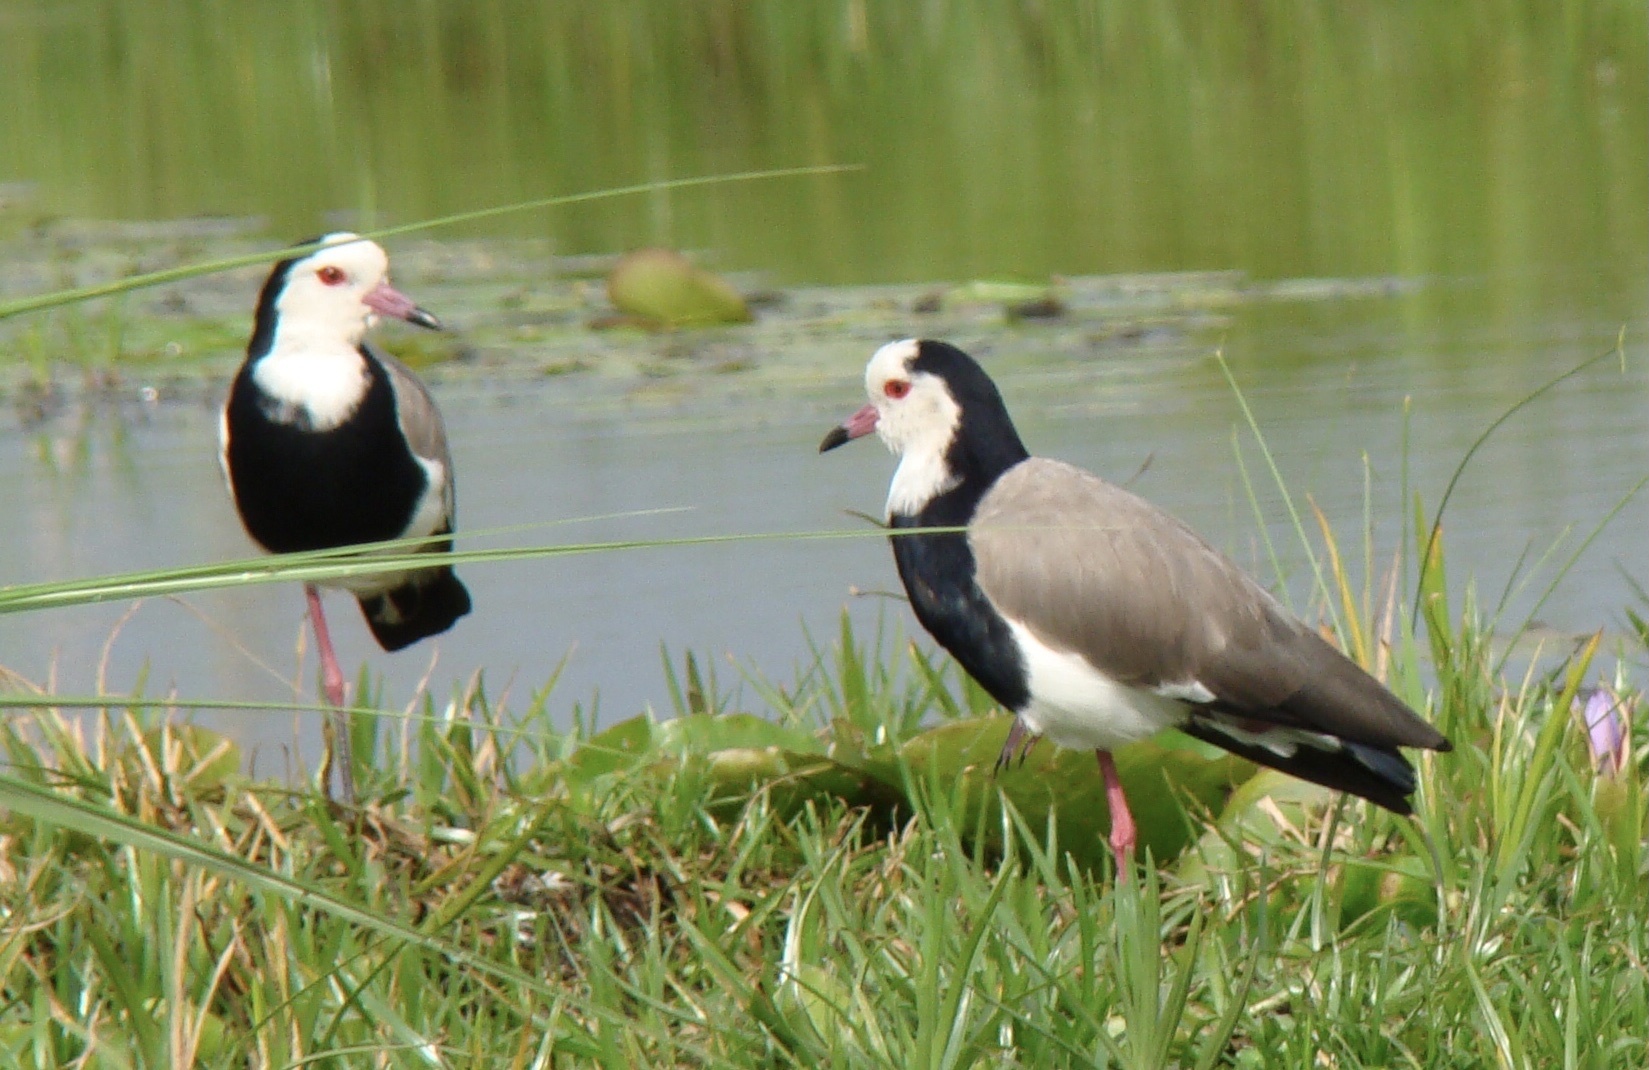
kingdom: Animalia
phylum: Chordata
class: Aves
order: Charadriiformes
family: Charadriidae
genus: Vanellus
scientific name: Vanellus crassirostris
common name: Long-toed lapwing
